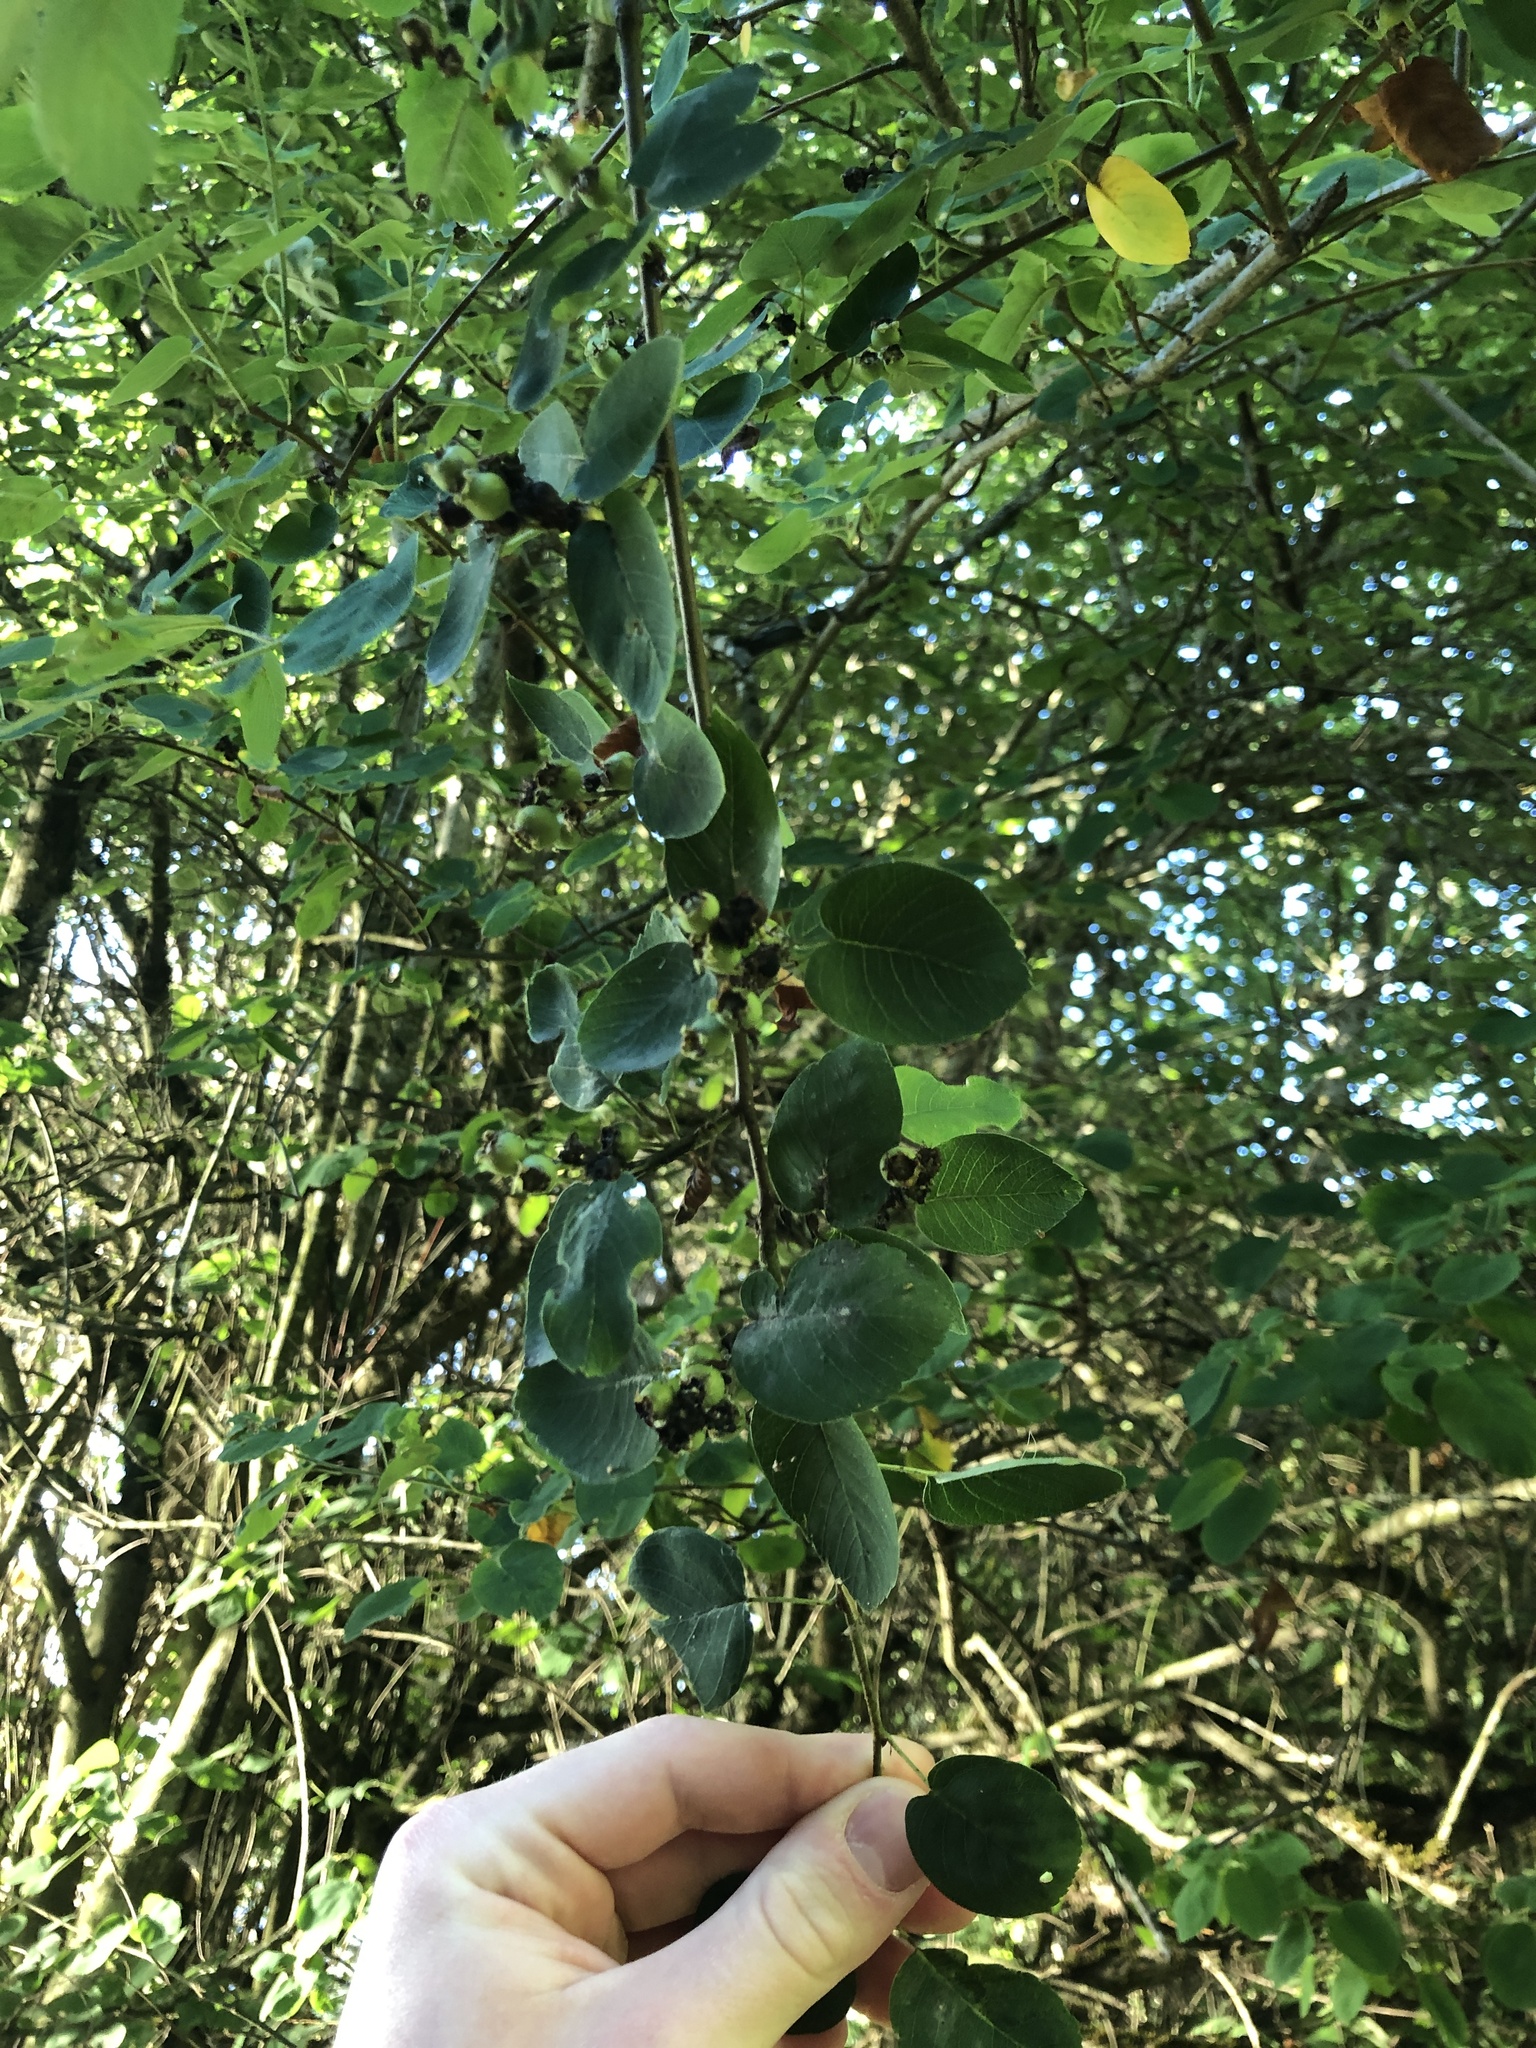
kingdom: Plantae
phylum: Tracheophyta
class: Magnoliopsida
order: Rosales
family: Rosaceae
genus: Amelanchier
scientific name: Amelanchier alnifolia
